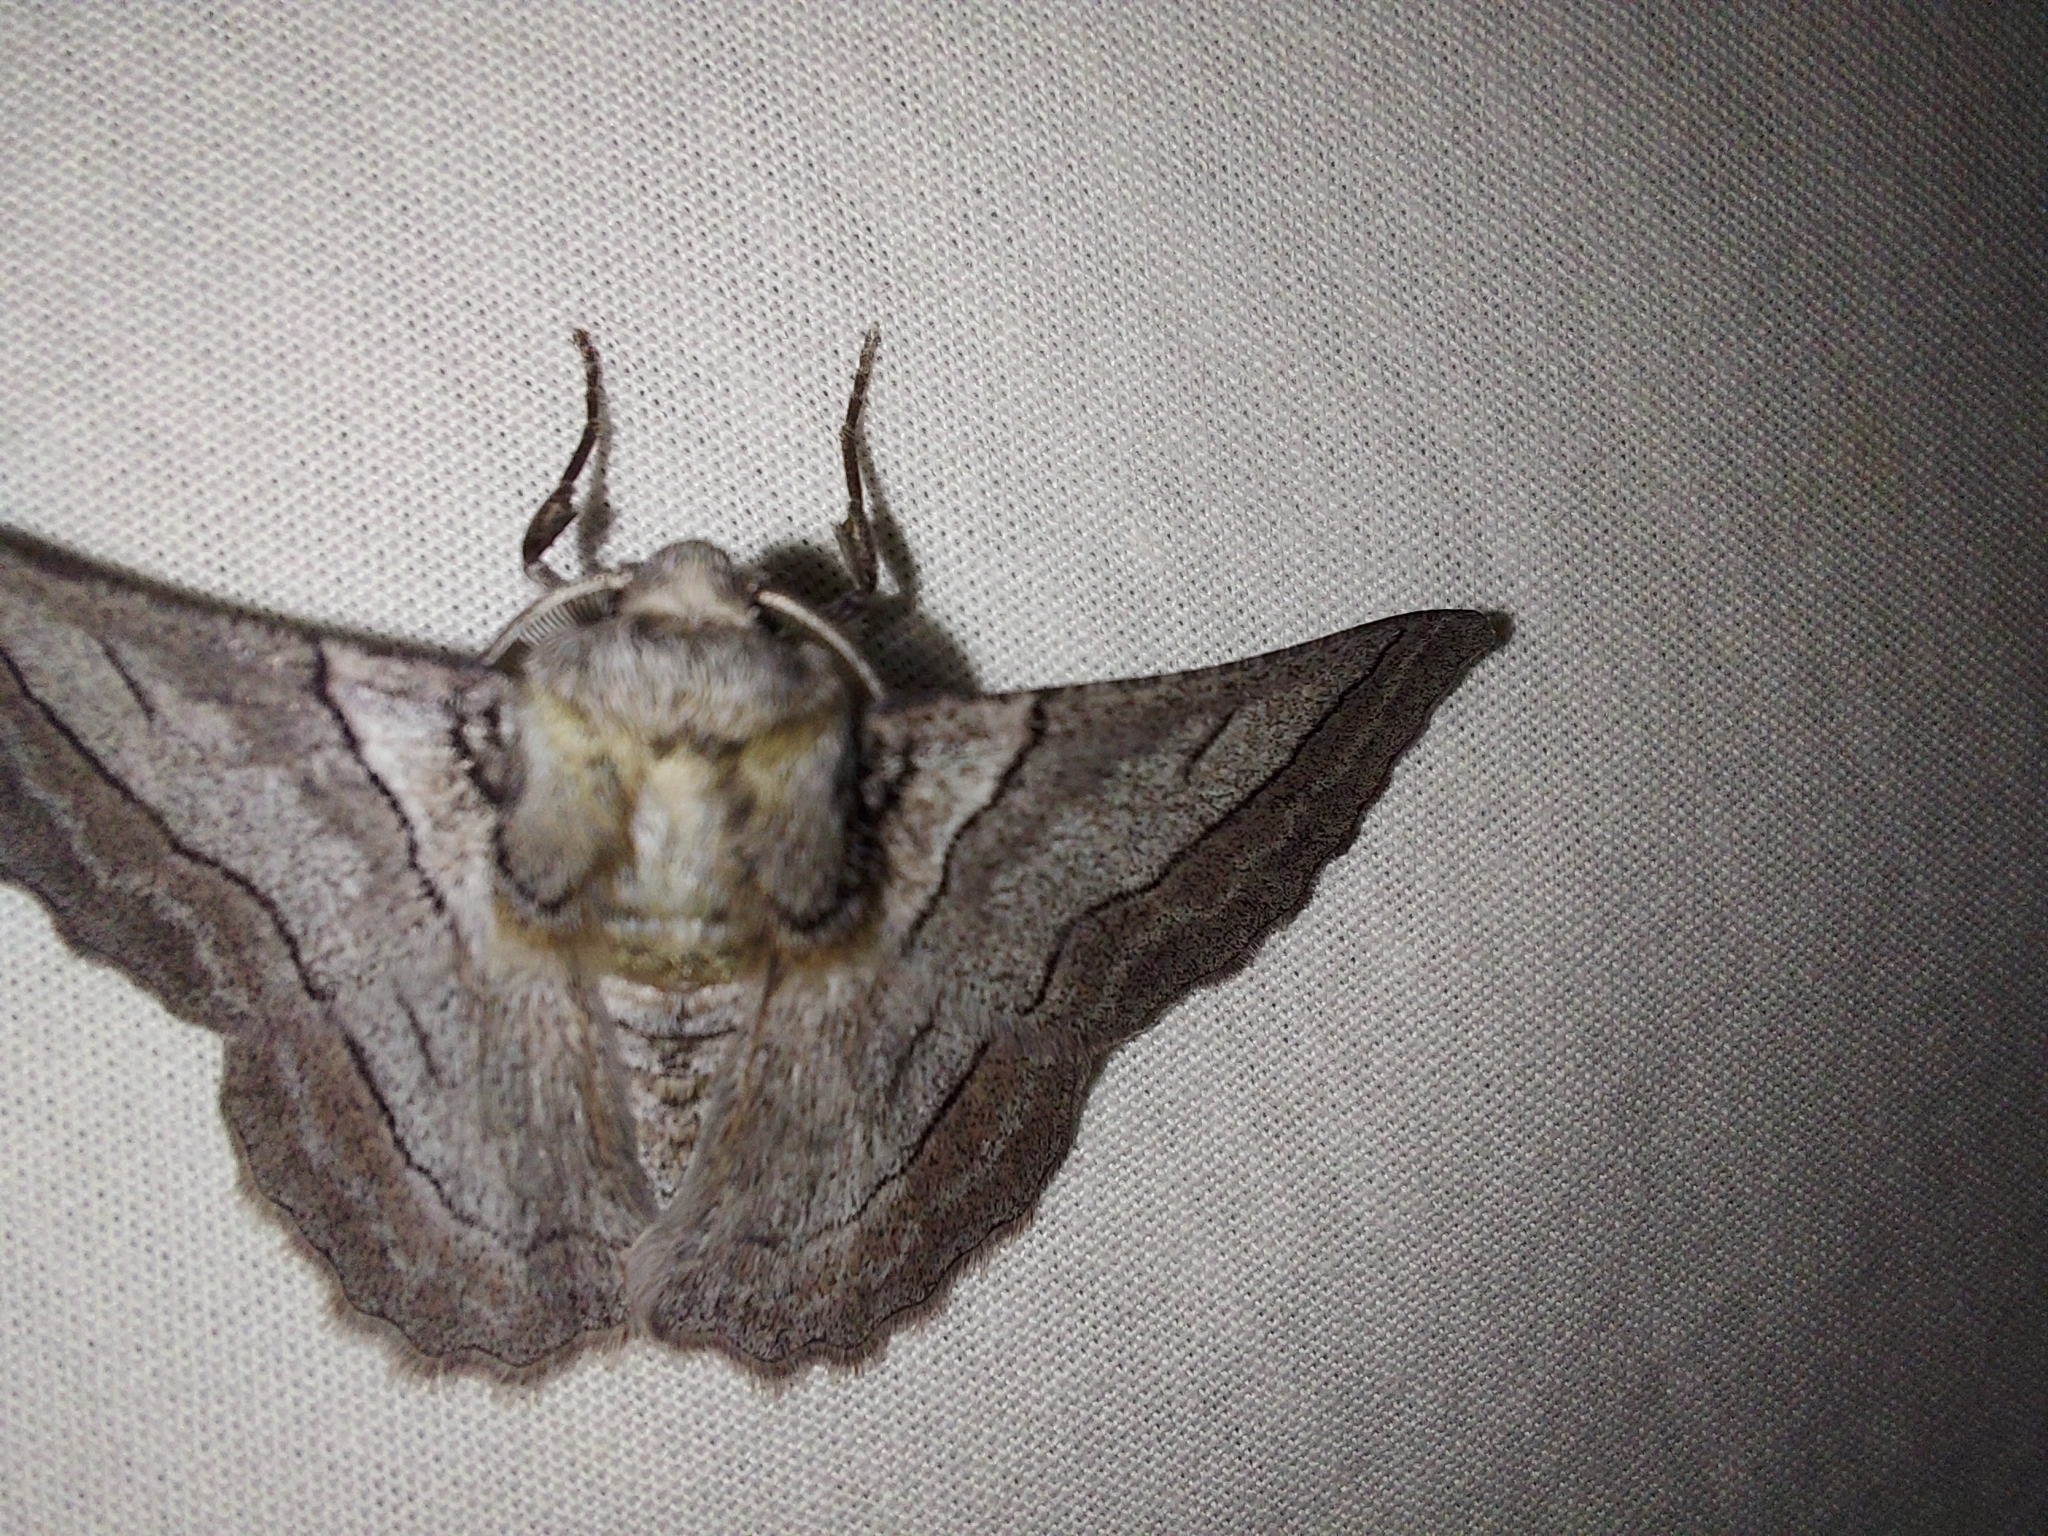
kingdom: Animalia
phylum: Arthropoda
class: Insecta
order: Lepidoptera
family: Geometridae
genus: Hypobapta
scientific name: Hypobapta tachyhalotaria
